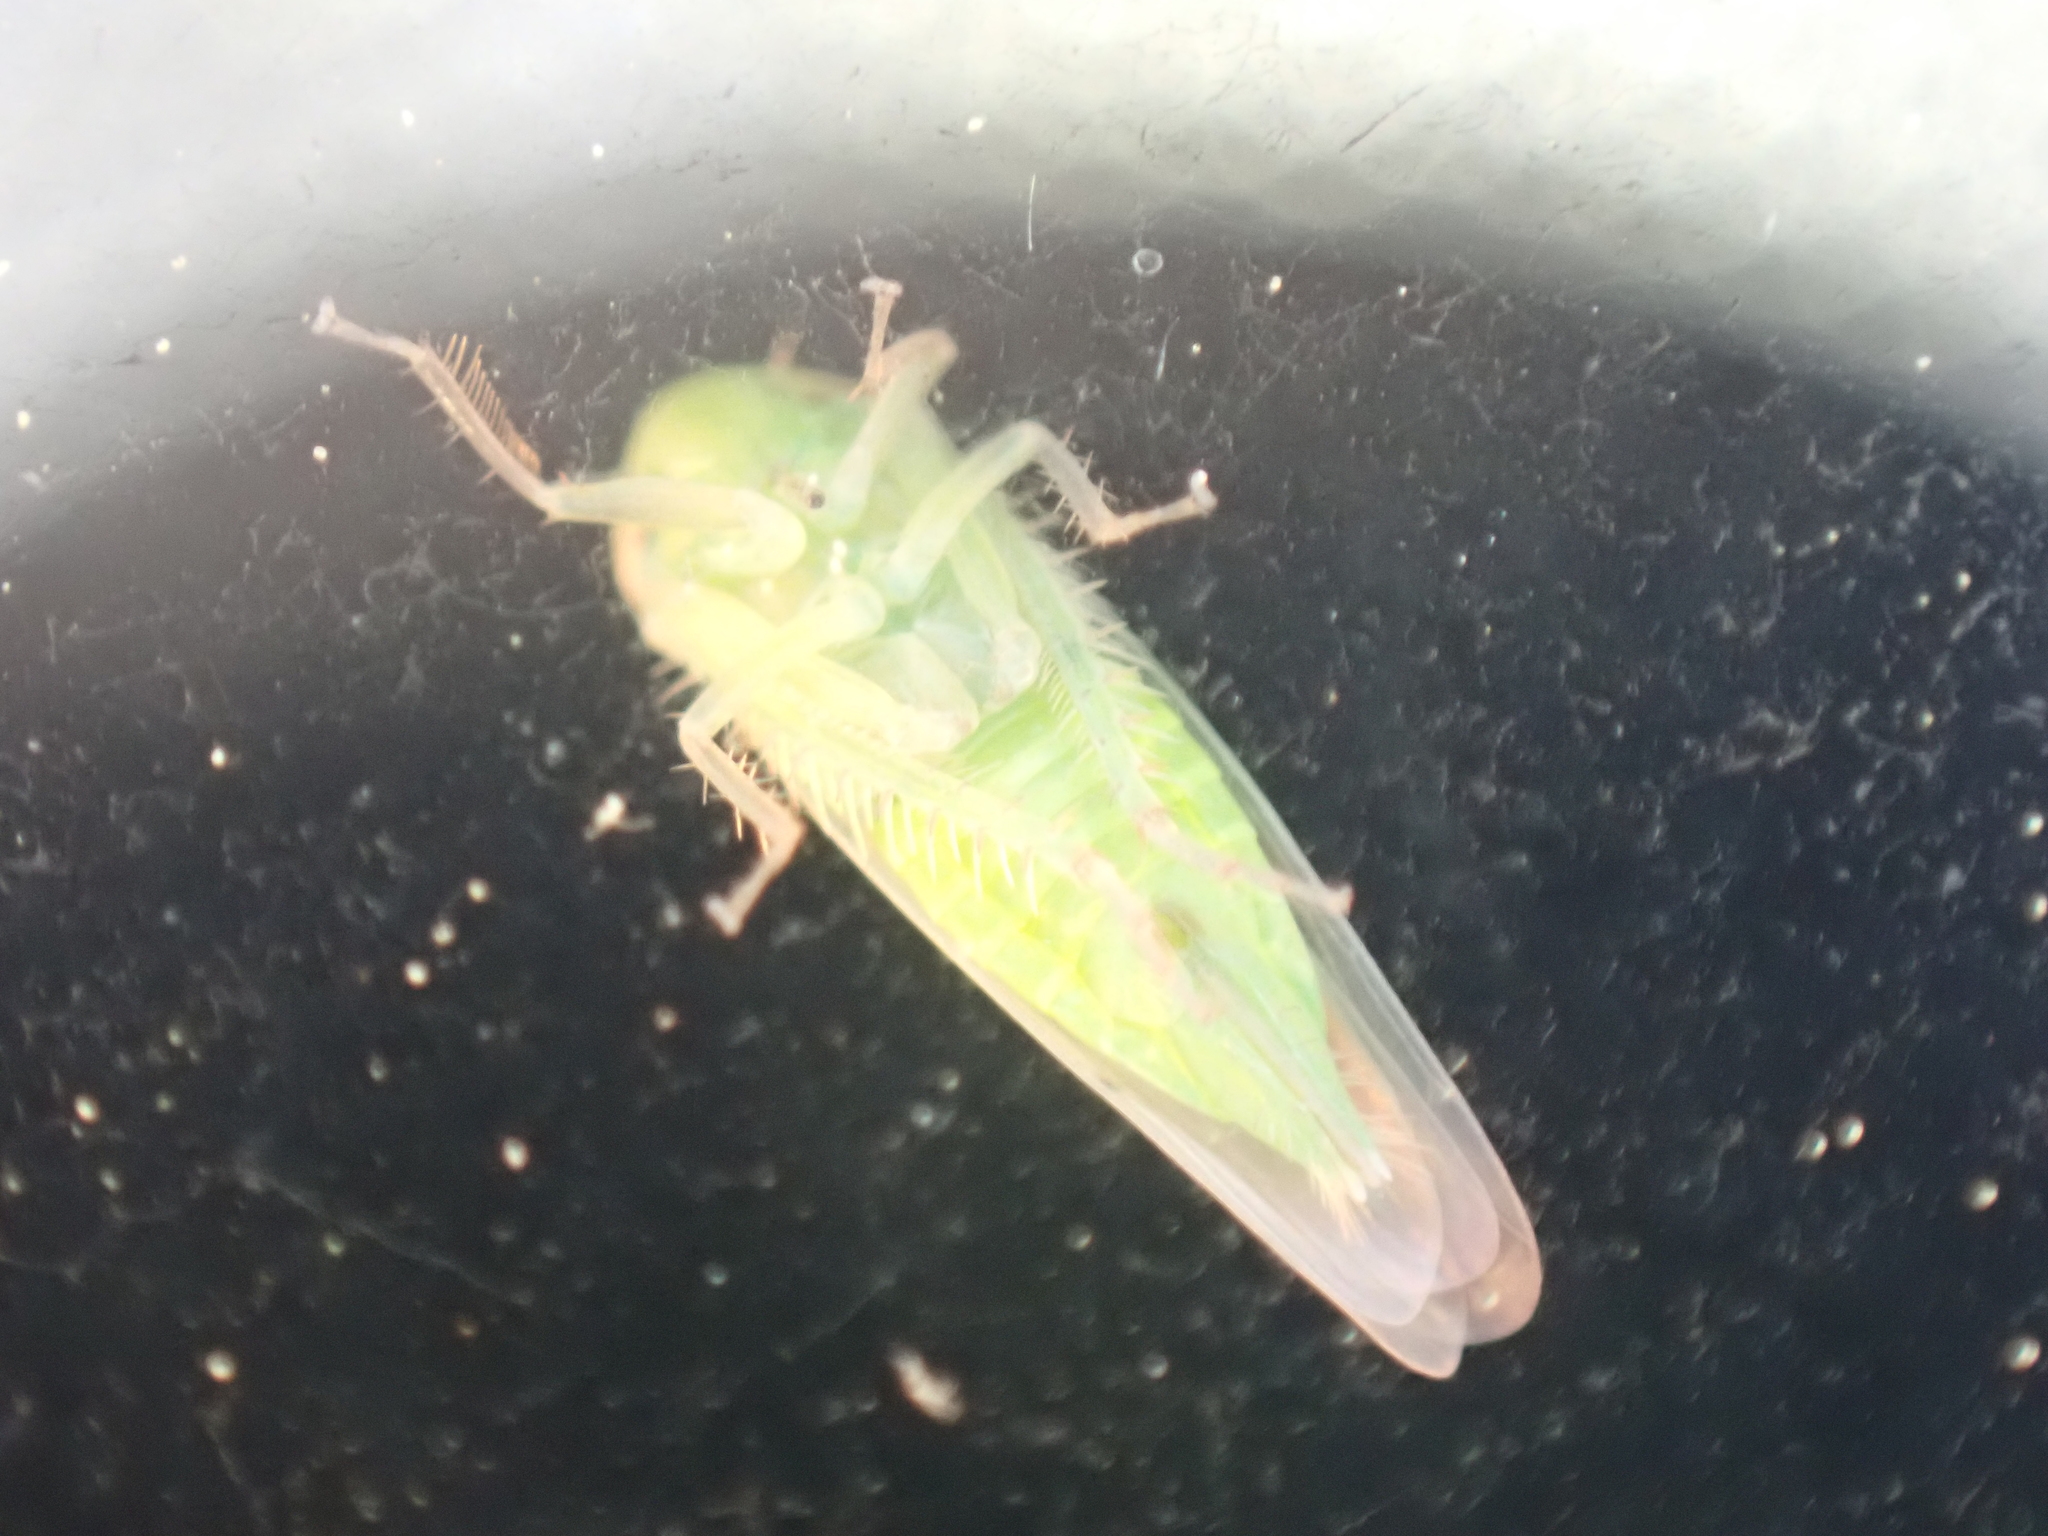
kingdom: Animalia
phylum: Arthropoda
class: Insecta
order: Hemiptera
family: Cicadellidae
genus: Chlorotettix
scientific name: Chlorotettix galbanatus
